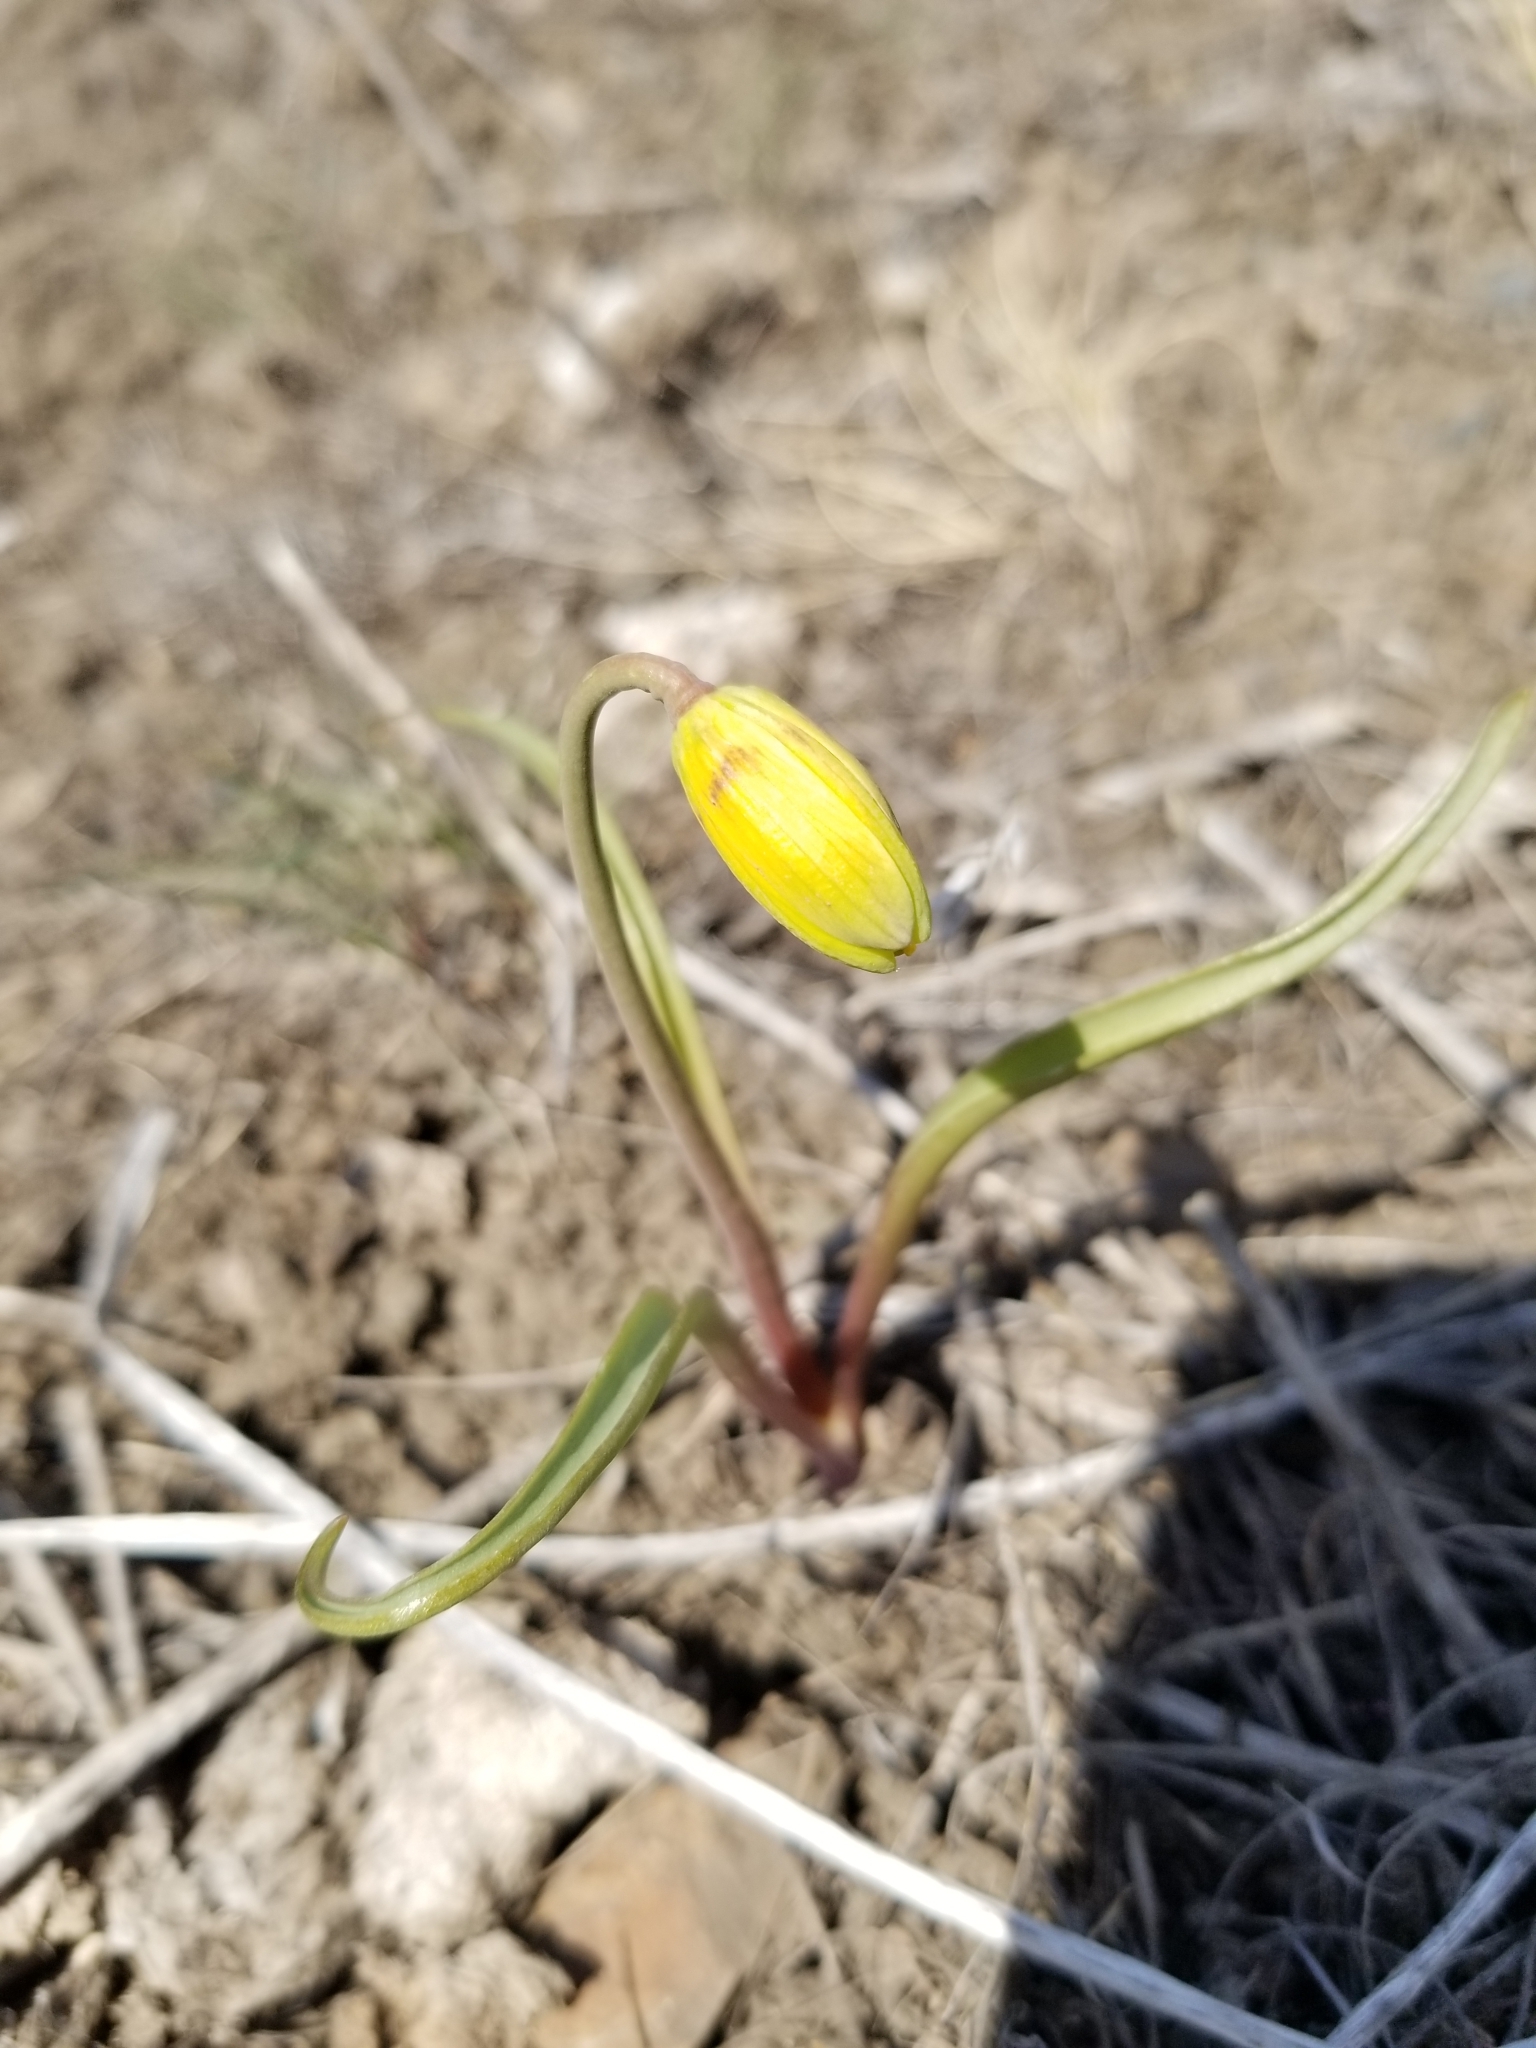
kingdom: Plantae
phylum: Tracheophyta
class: Liliopsida
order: Liliales
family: Liliaceae
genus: Fritillaria
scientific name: Fritillaria pudica
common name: Yellow fritillary
